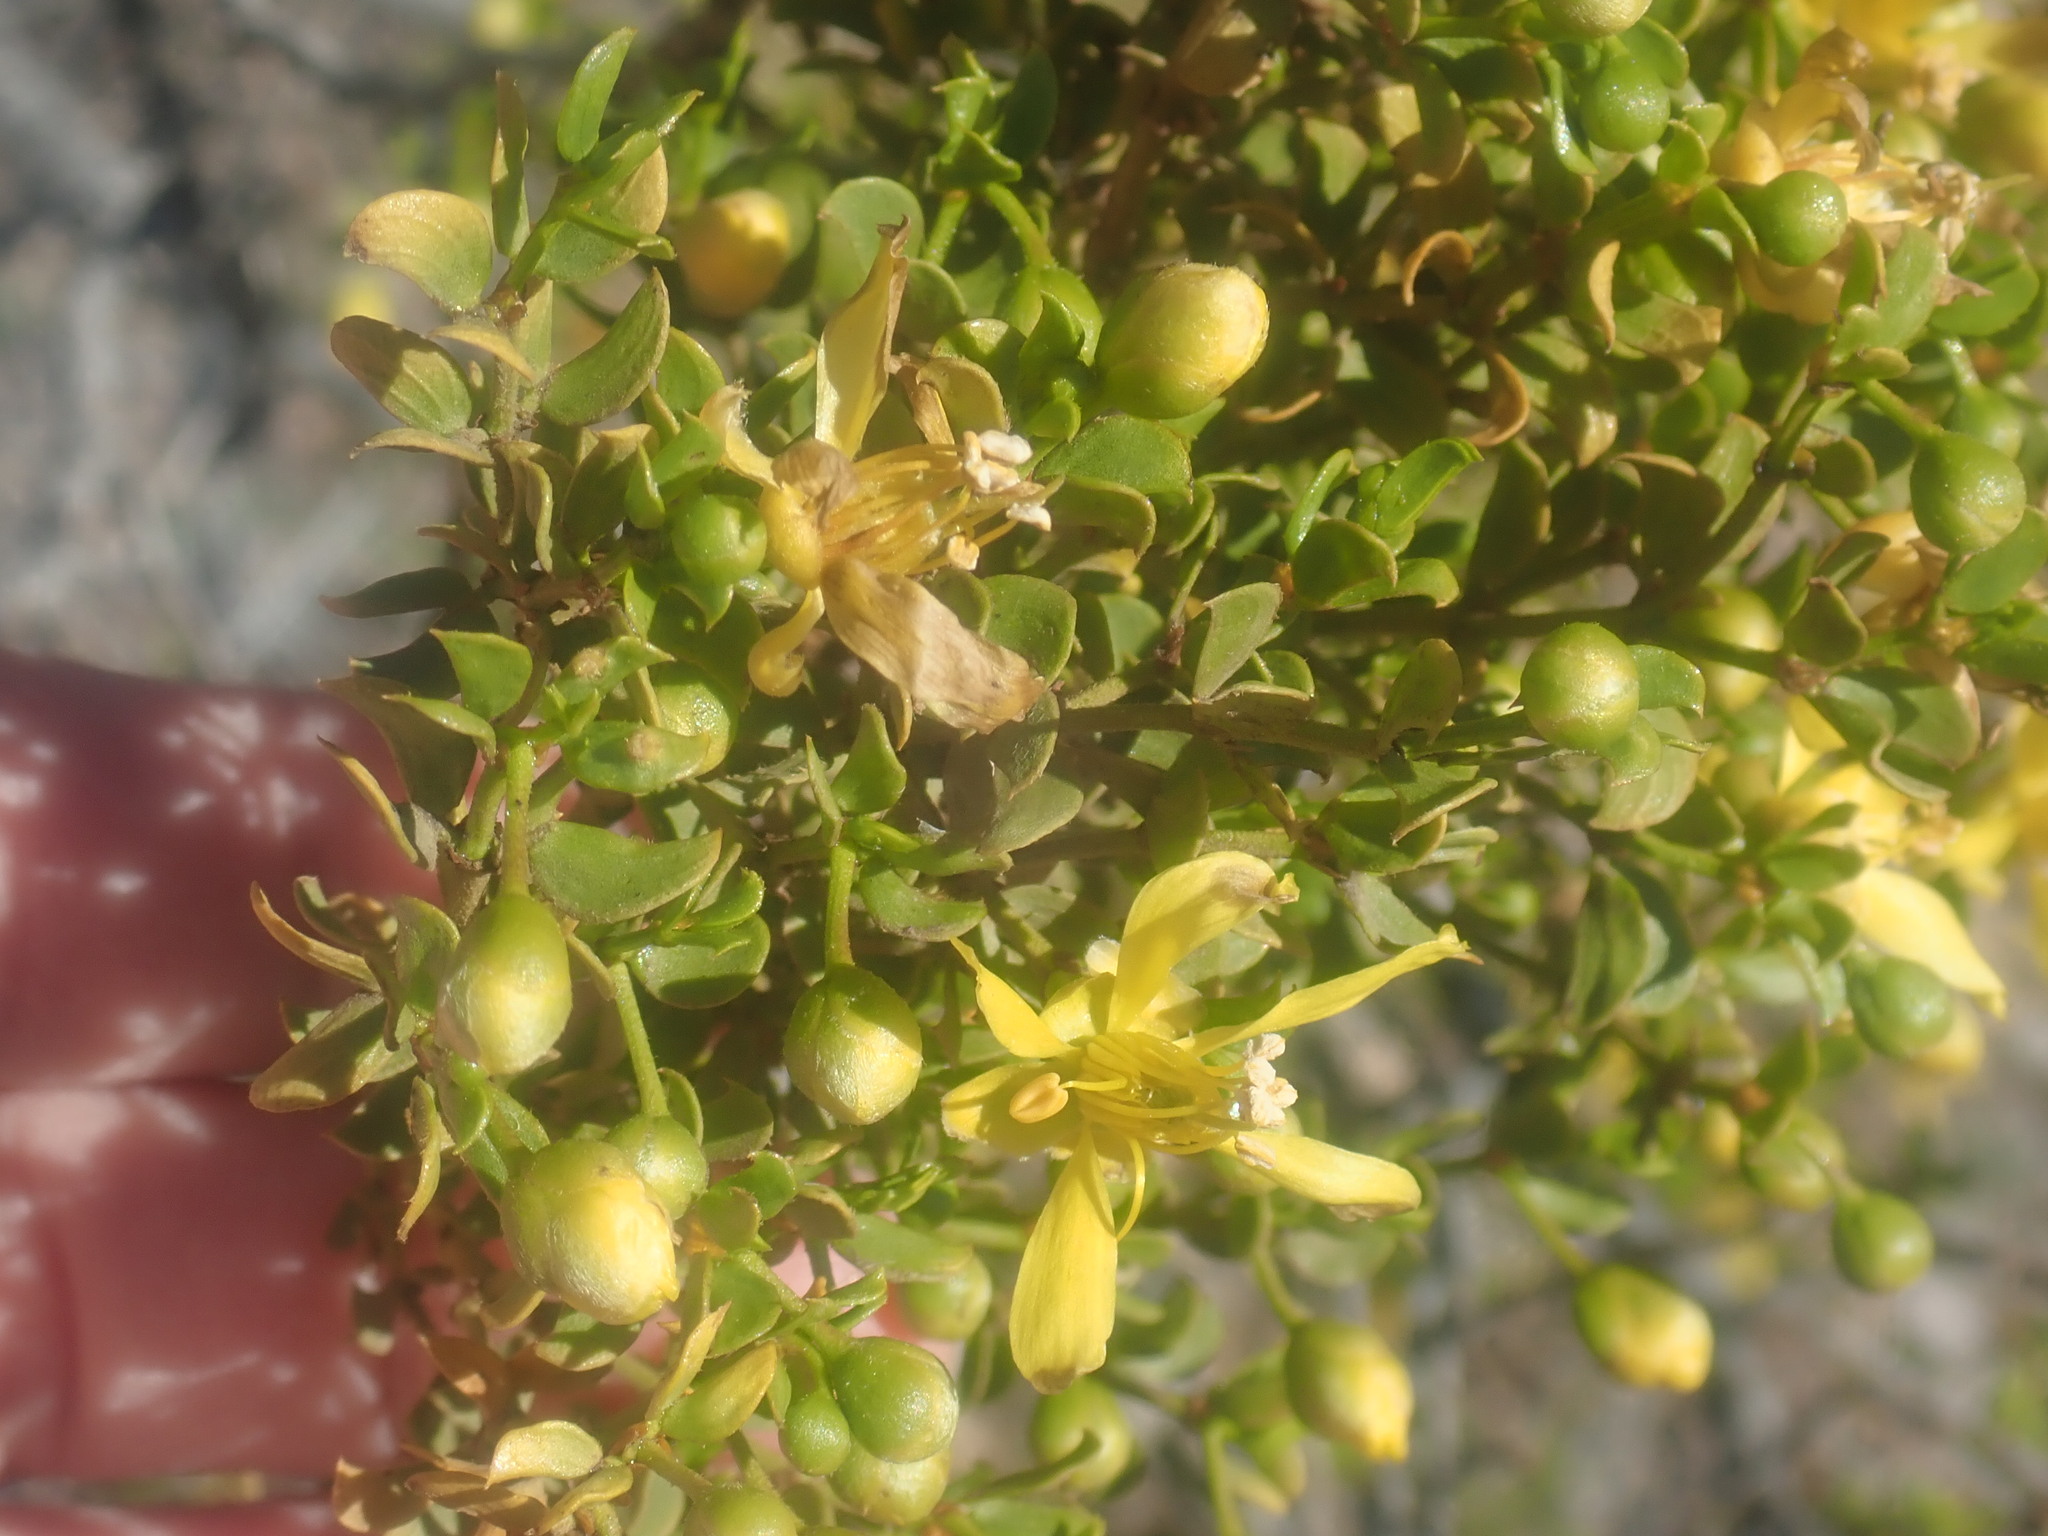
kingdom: Plantae
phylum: Tracheophyta
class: Magnoliopsida
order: Zygophyllales
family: Zygophyllaceae
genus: Larrea
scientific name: Larrea tridentata
